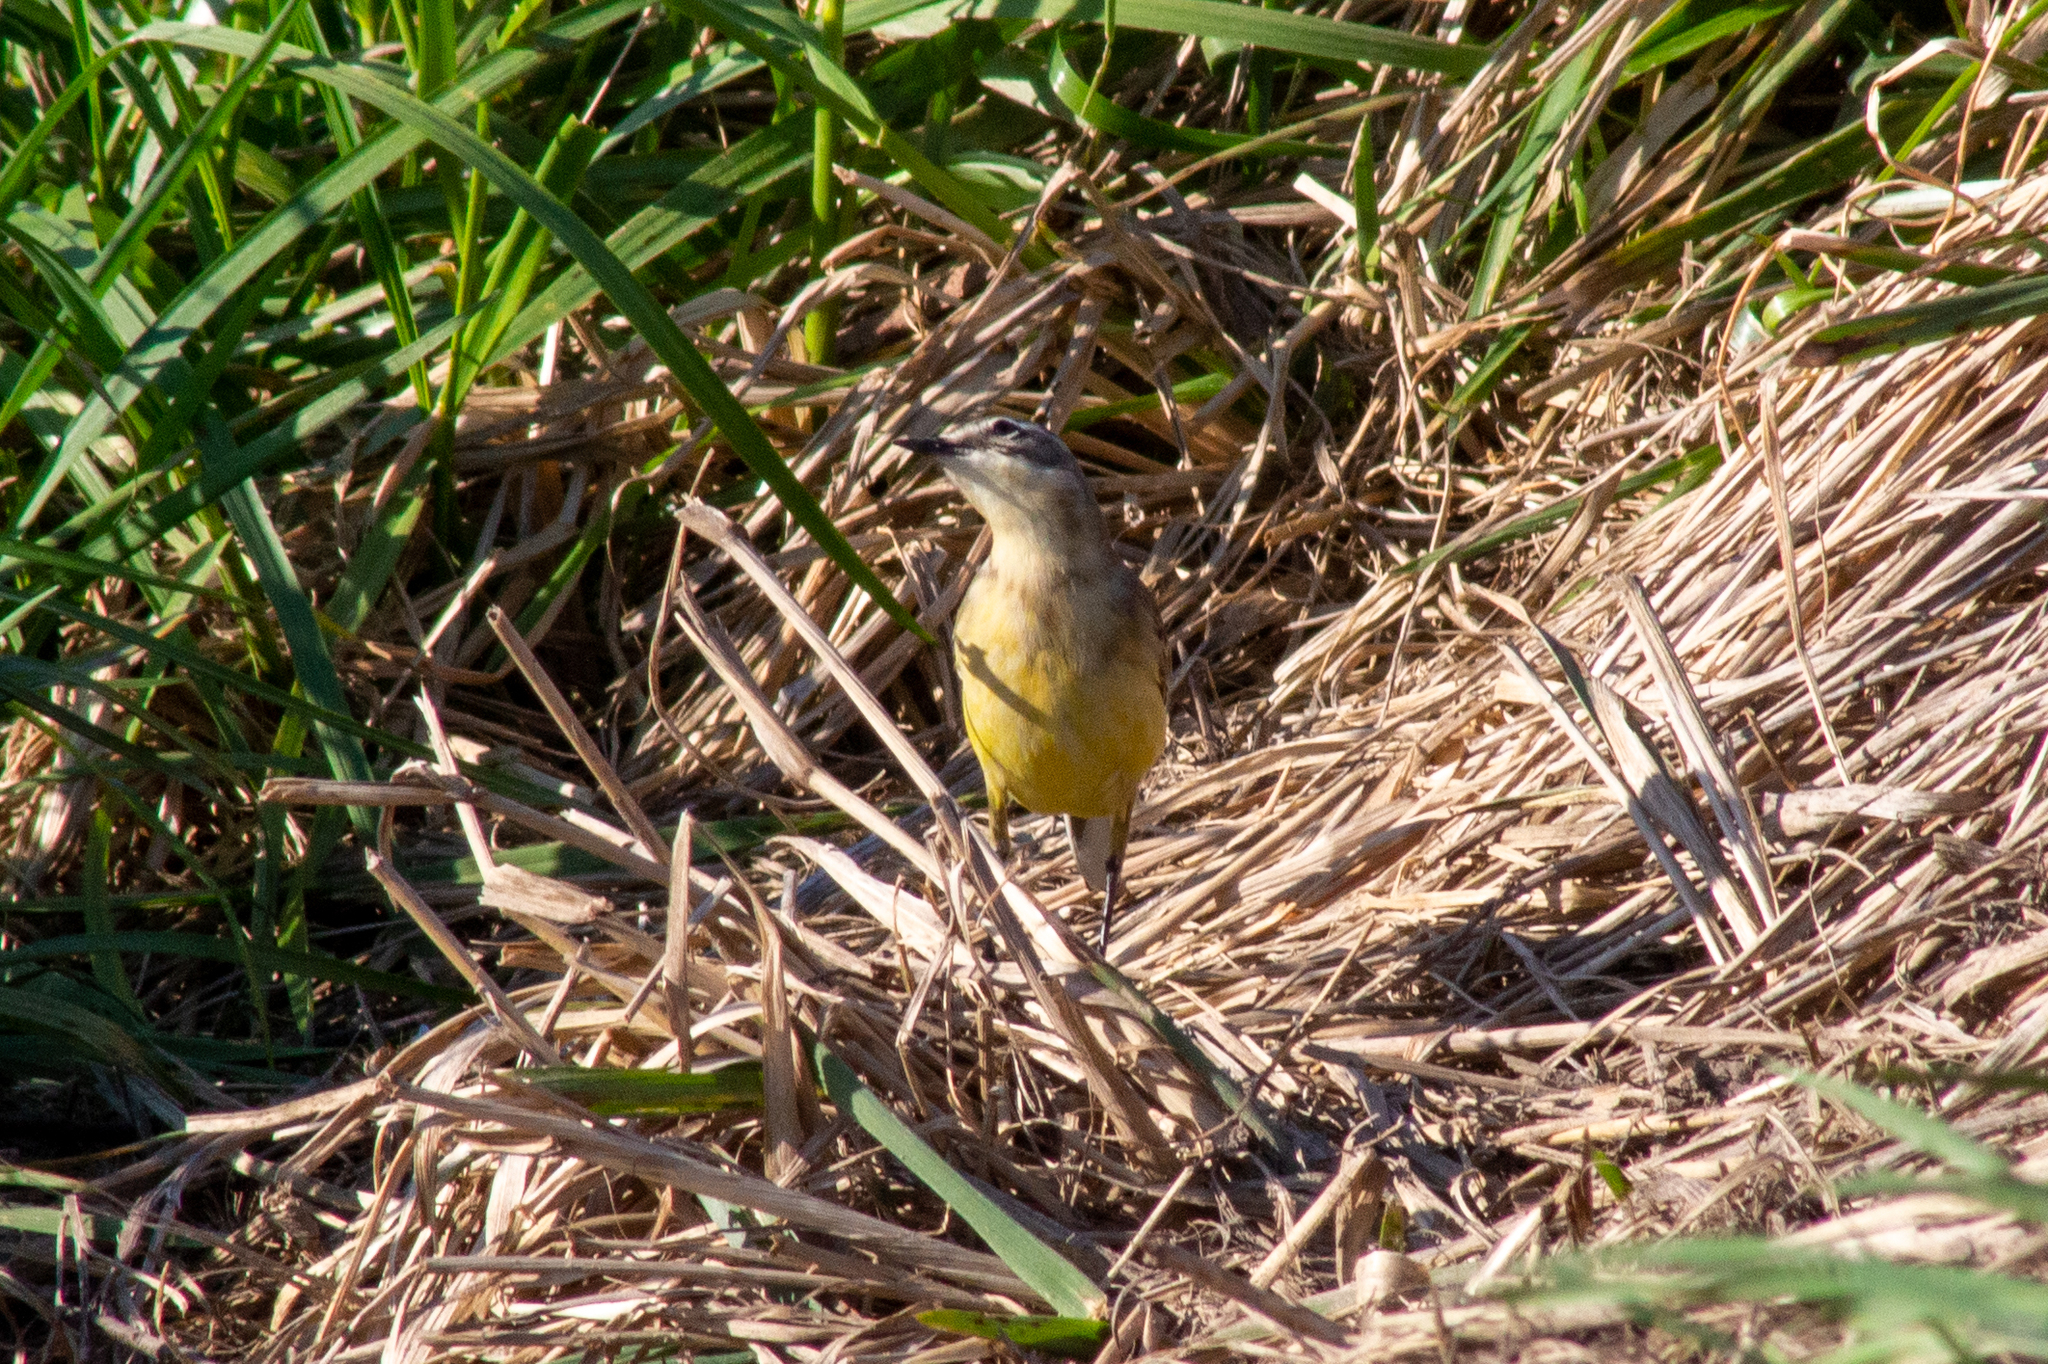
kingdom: Animalia
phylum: Chordata
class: Aves
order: Passeriformes
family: Motacillidae
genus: Motacilla
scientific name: Motacilla flava
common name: Western yellow wagtail
